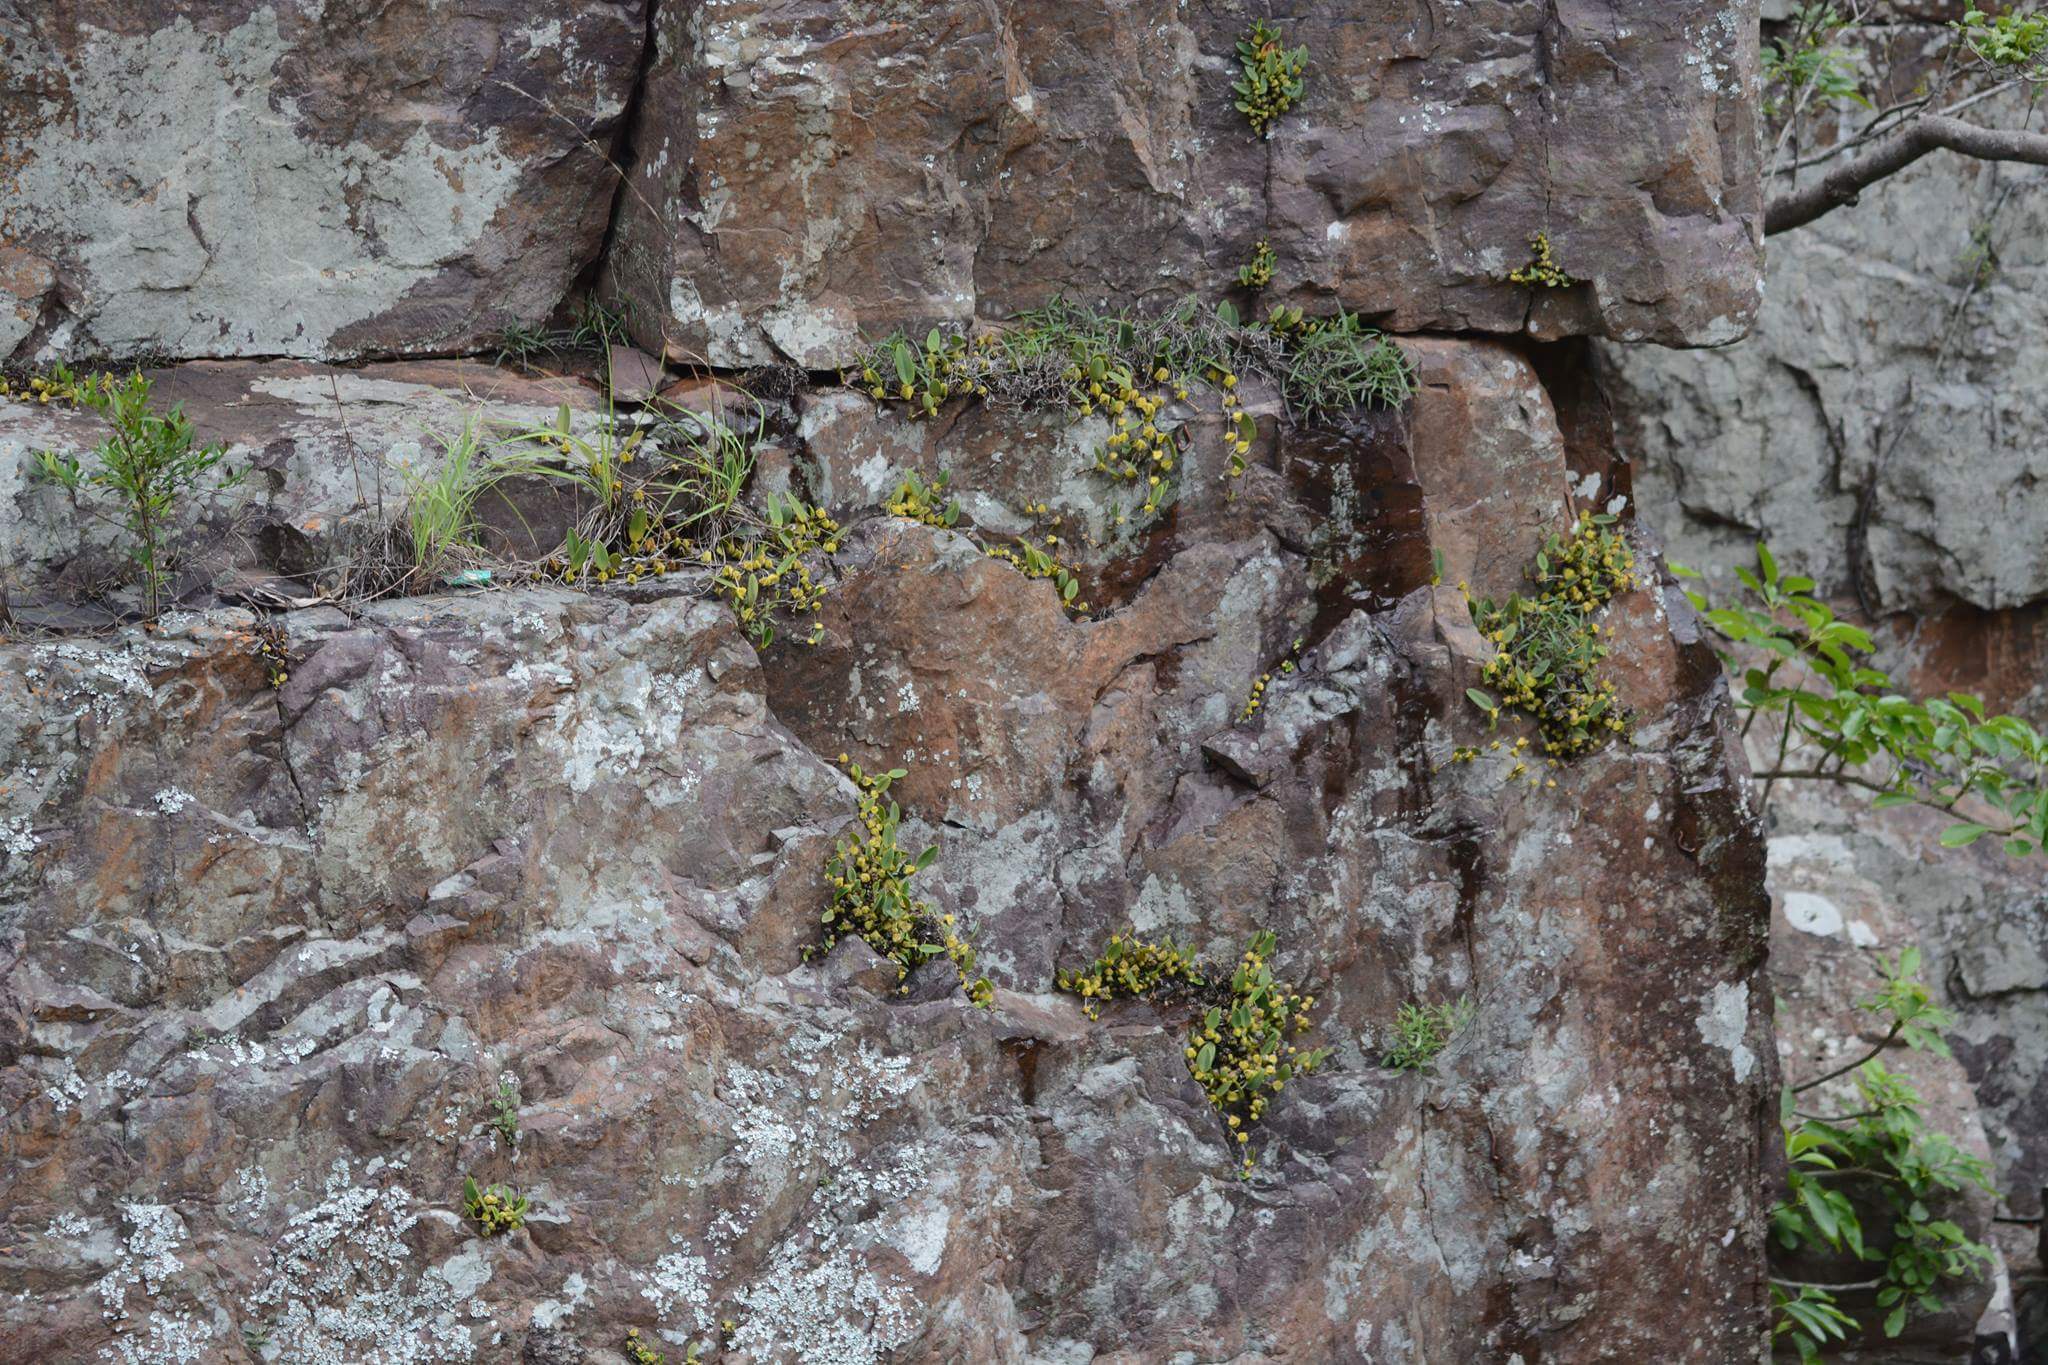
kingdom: Plantae
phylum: Tracheophyta
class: Liliopsida
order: Asparagales
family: Orchidaceae
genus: Bulbophyllum
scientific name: Bulbophyllum kaitiense
